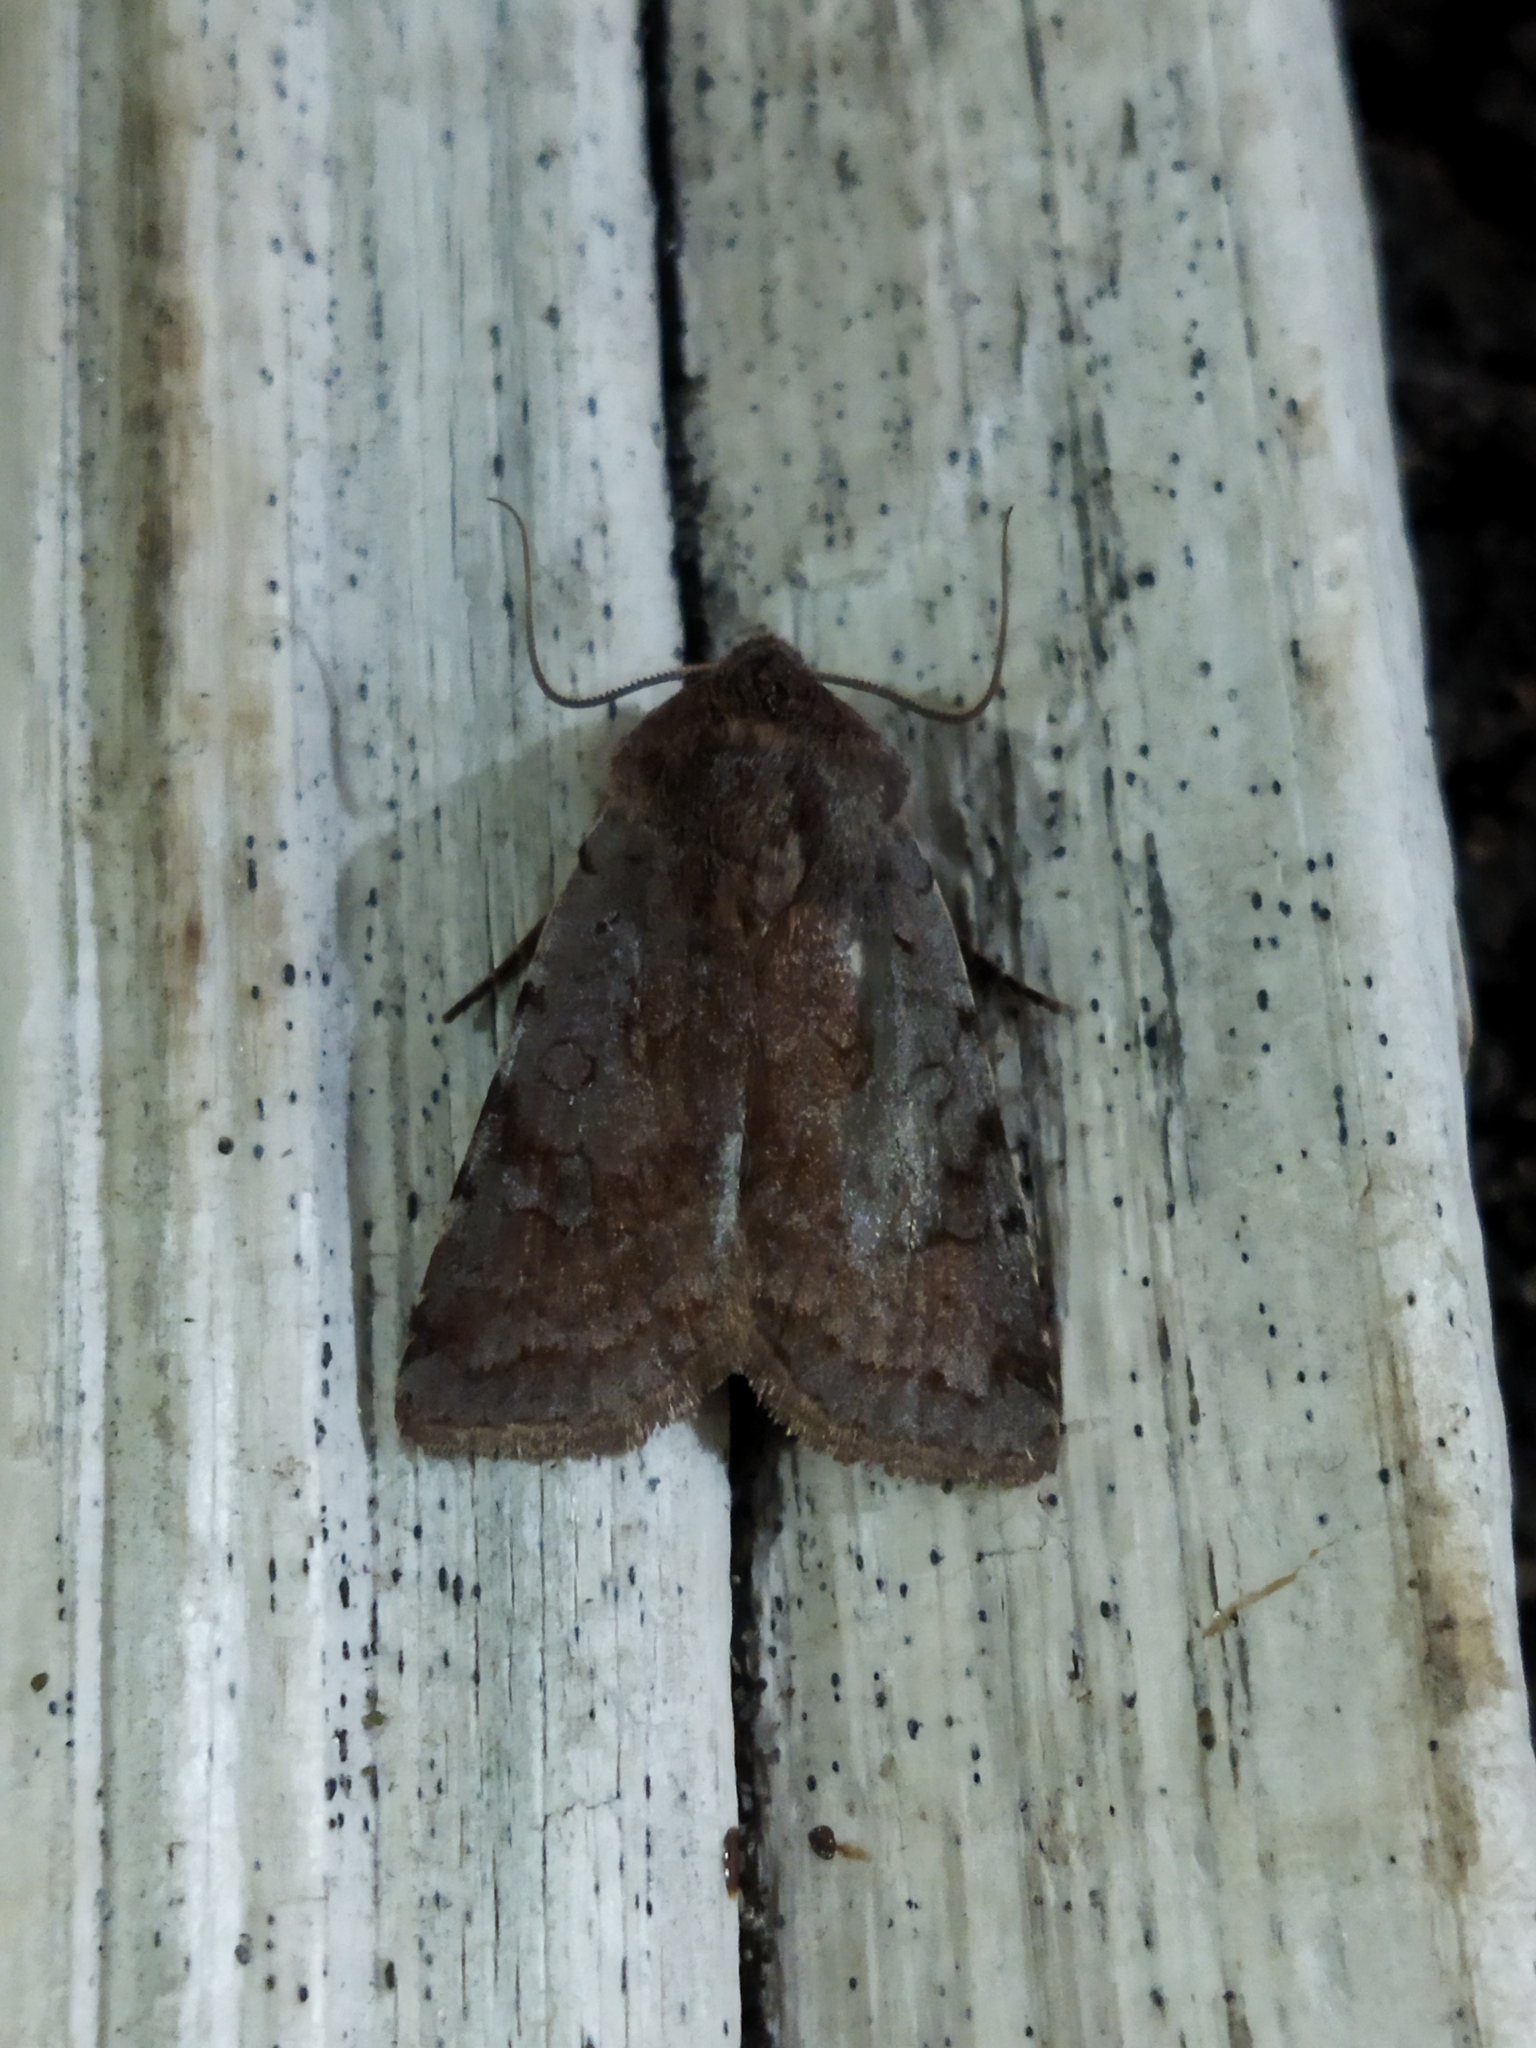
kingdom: Animalia
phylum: Arthropoda
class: Insecta
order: Lepidoptera
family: Noctuidae
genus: Cerastis
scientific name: Cerastis rubricosa
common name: Red chestnut
